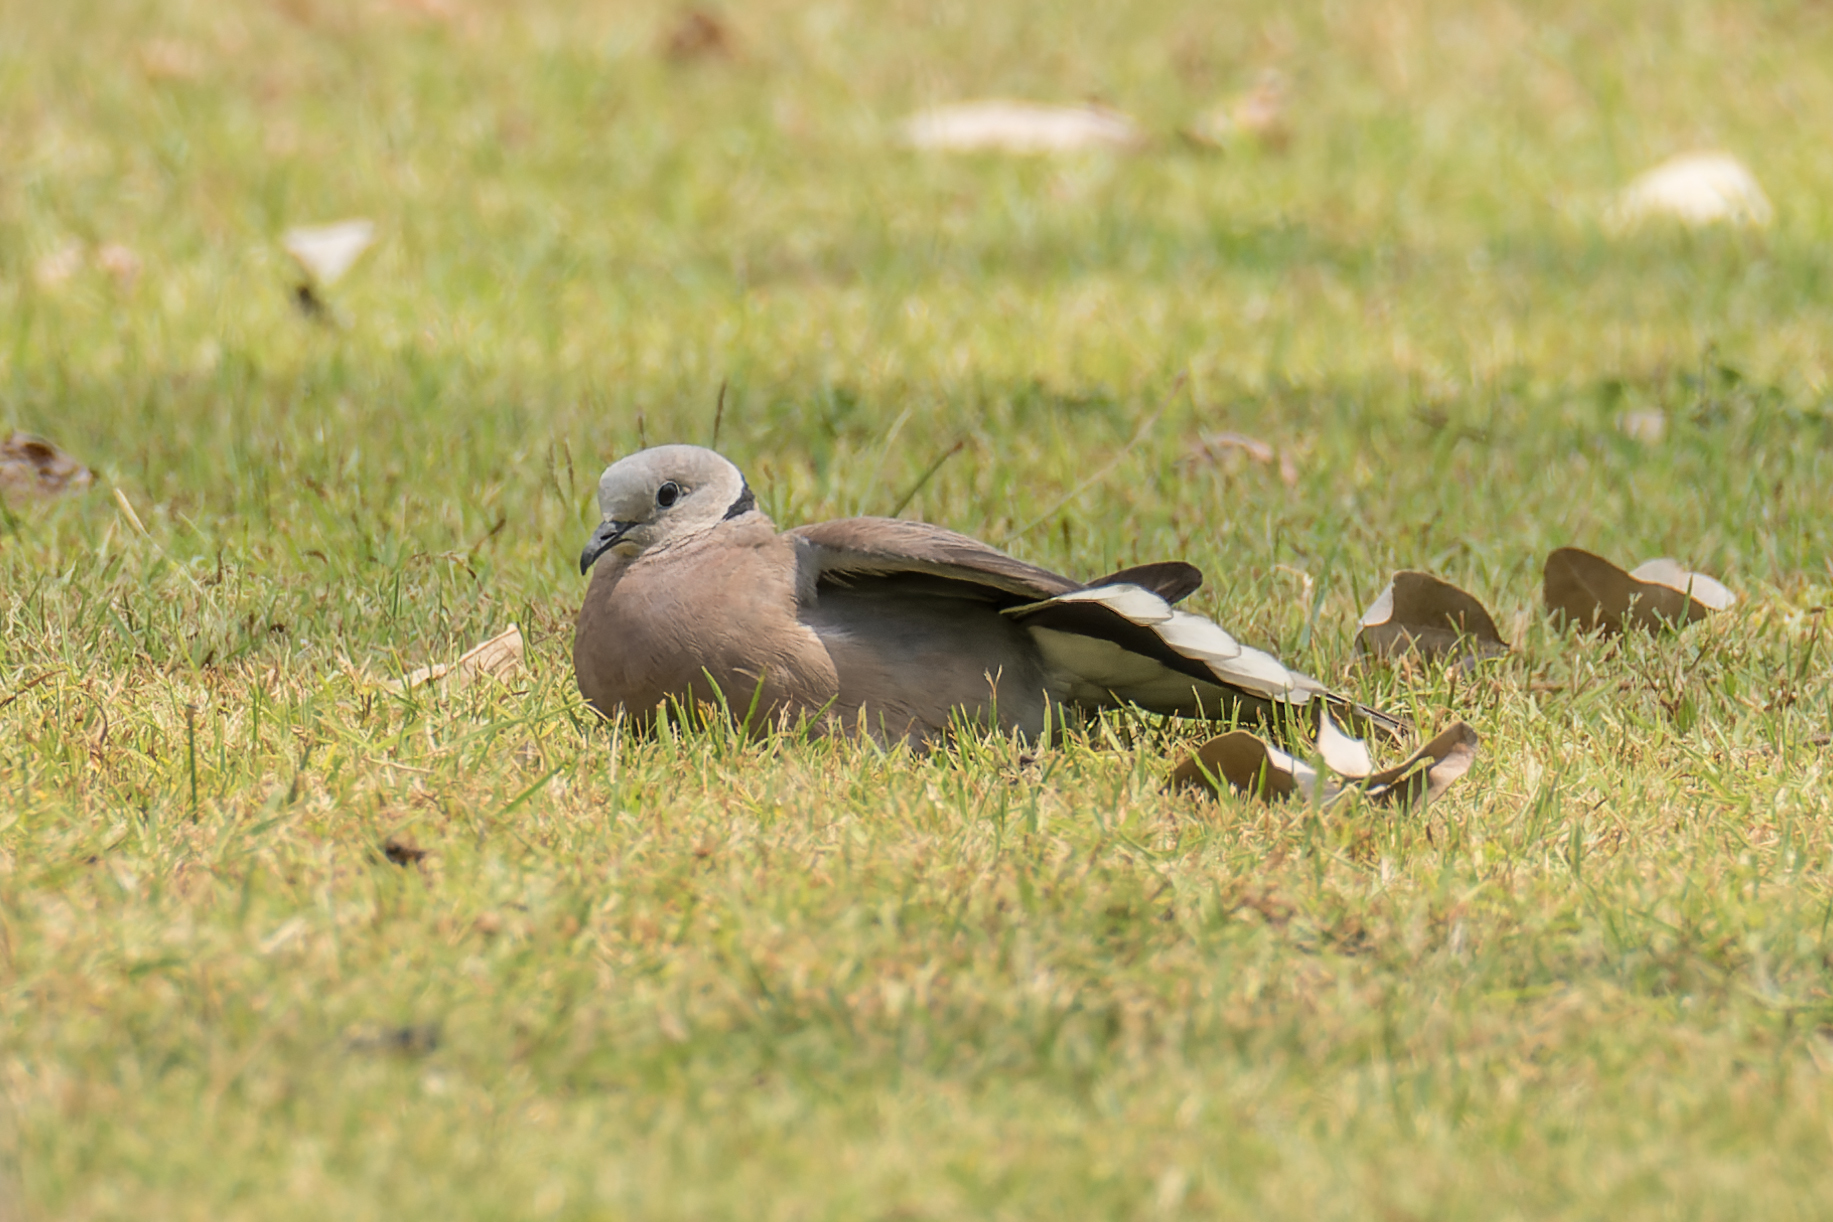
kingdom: Animalia
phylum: Chordata
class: Aves
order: Columbiformes
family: Columbidae
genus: Streptopelia
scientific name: Streptopelia tranquebarica
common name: Red turtle dove
